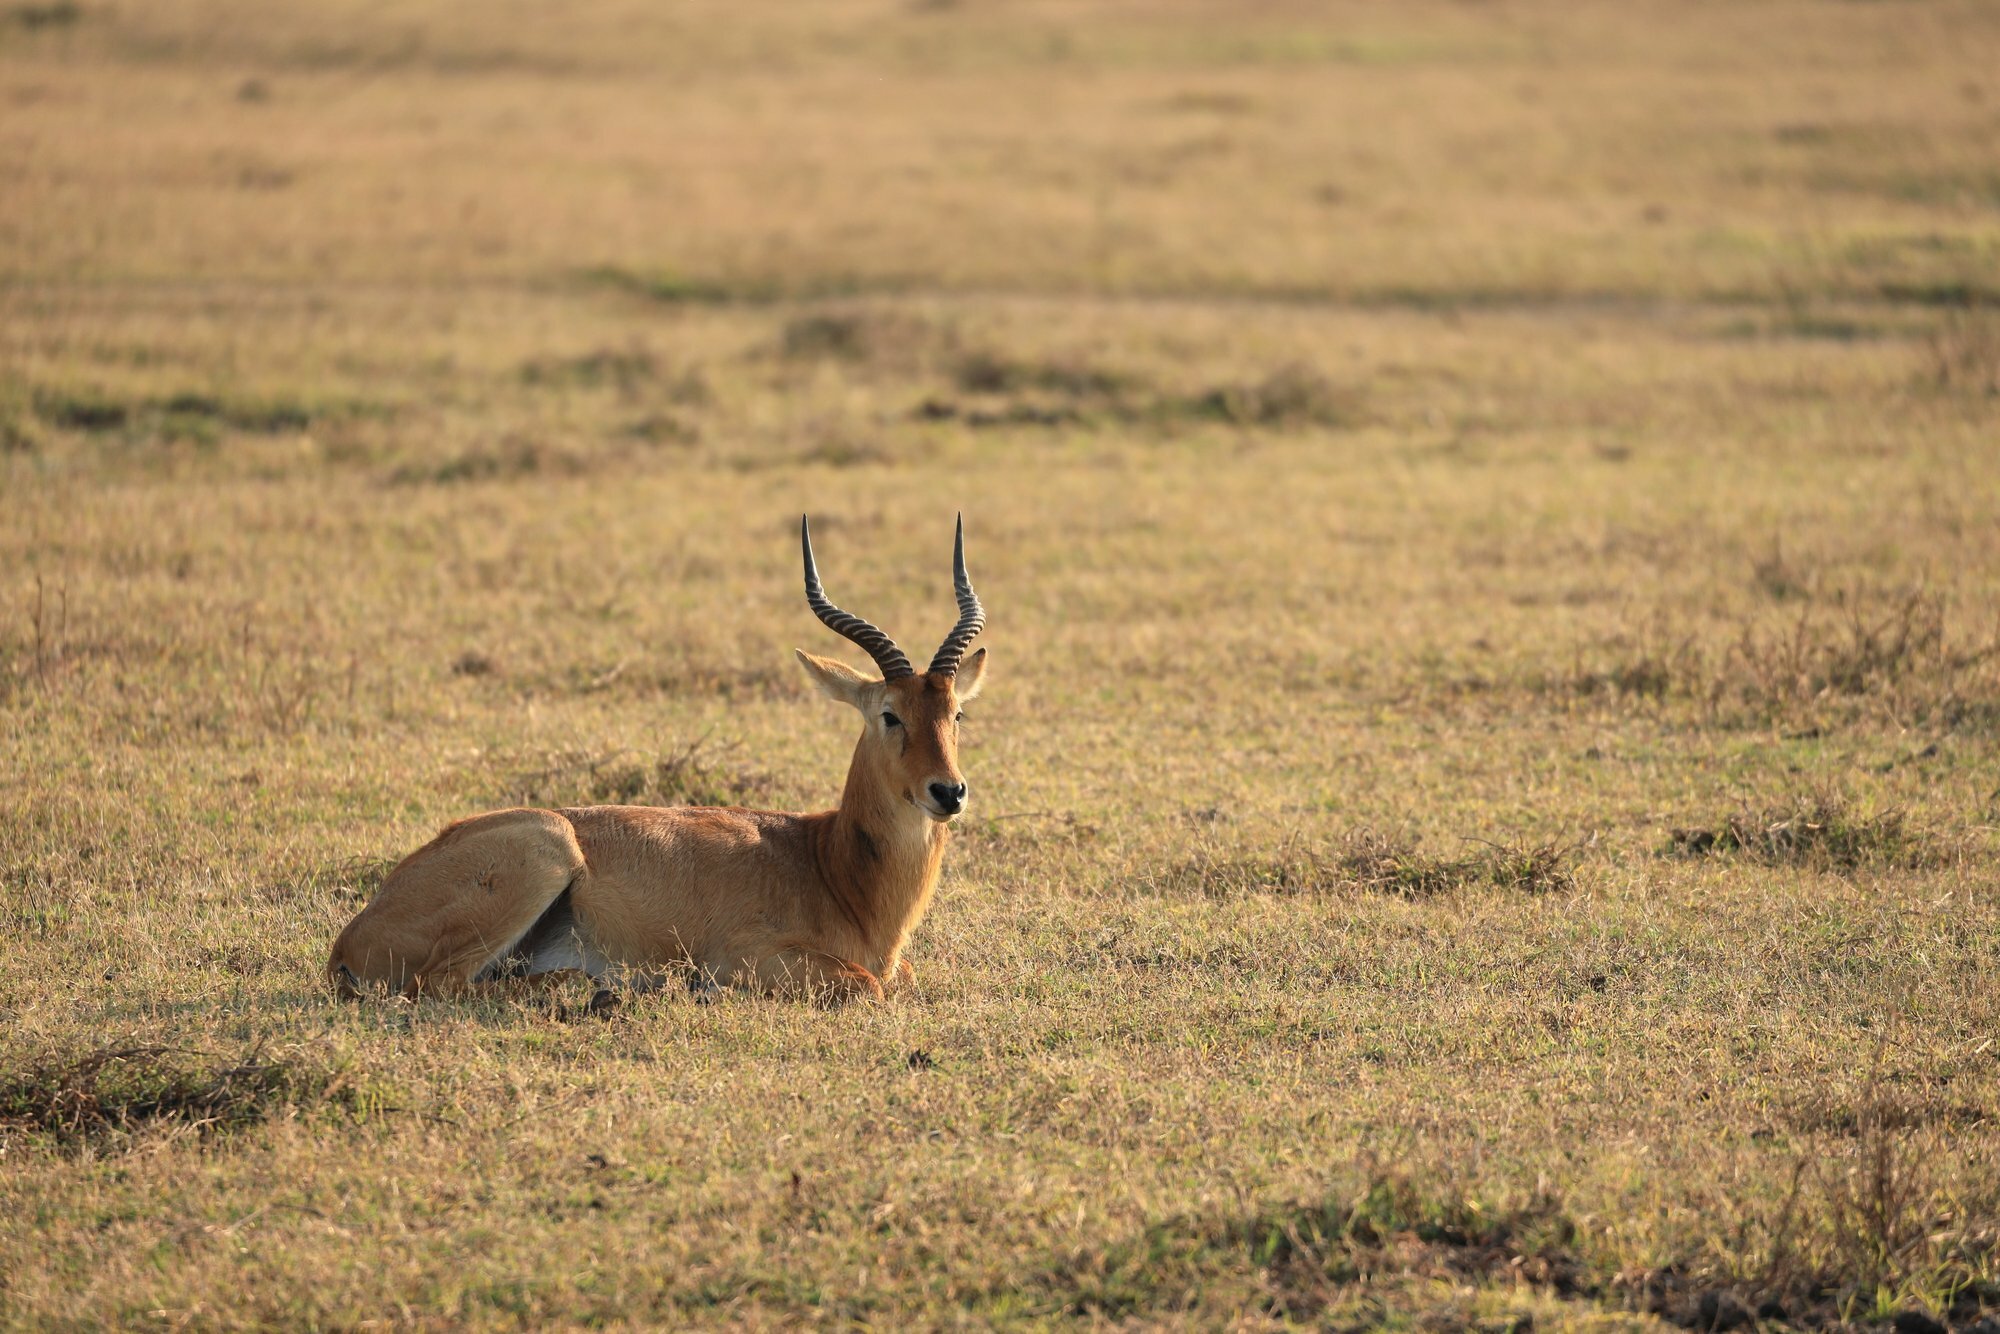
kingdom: Animalia
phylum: Chordata
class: Mammalia
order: Artiodactyla
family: Bovidae
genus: Kobus
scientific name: Kobus vardonii
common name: Puku
